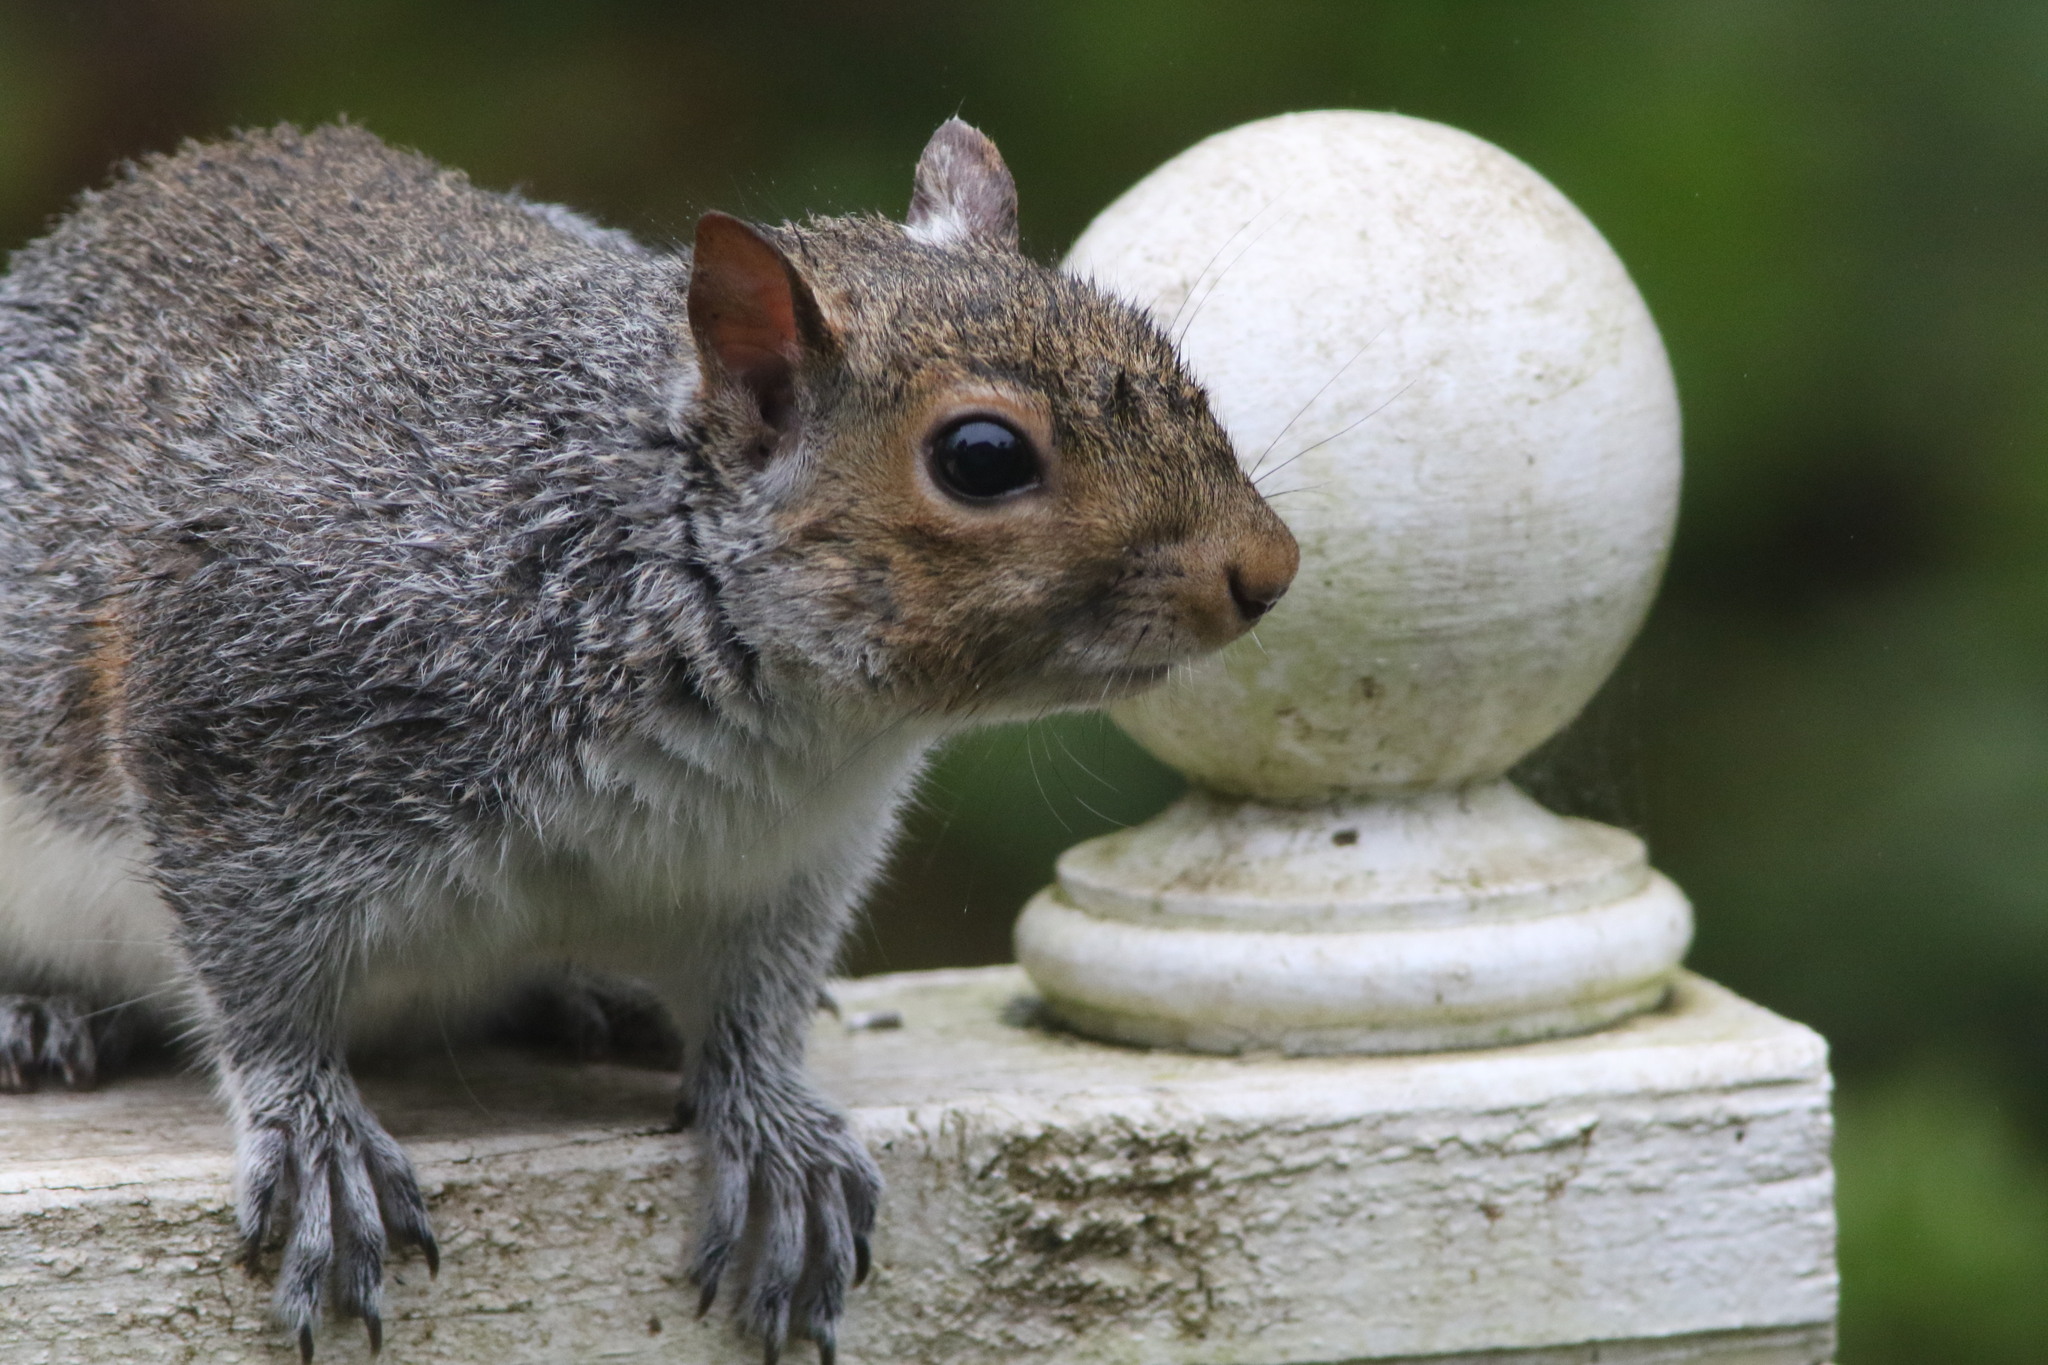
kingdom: Animalia
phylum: Chordata
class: Mammalia
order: Rodentia
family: Sciuridae
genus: Sciurus
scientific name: Sciurus carolinensis
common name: Eastern gray squirrel
